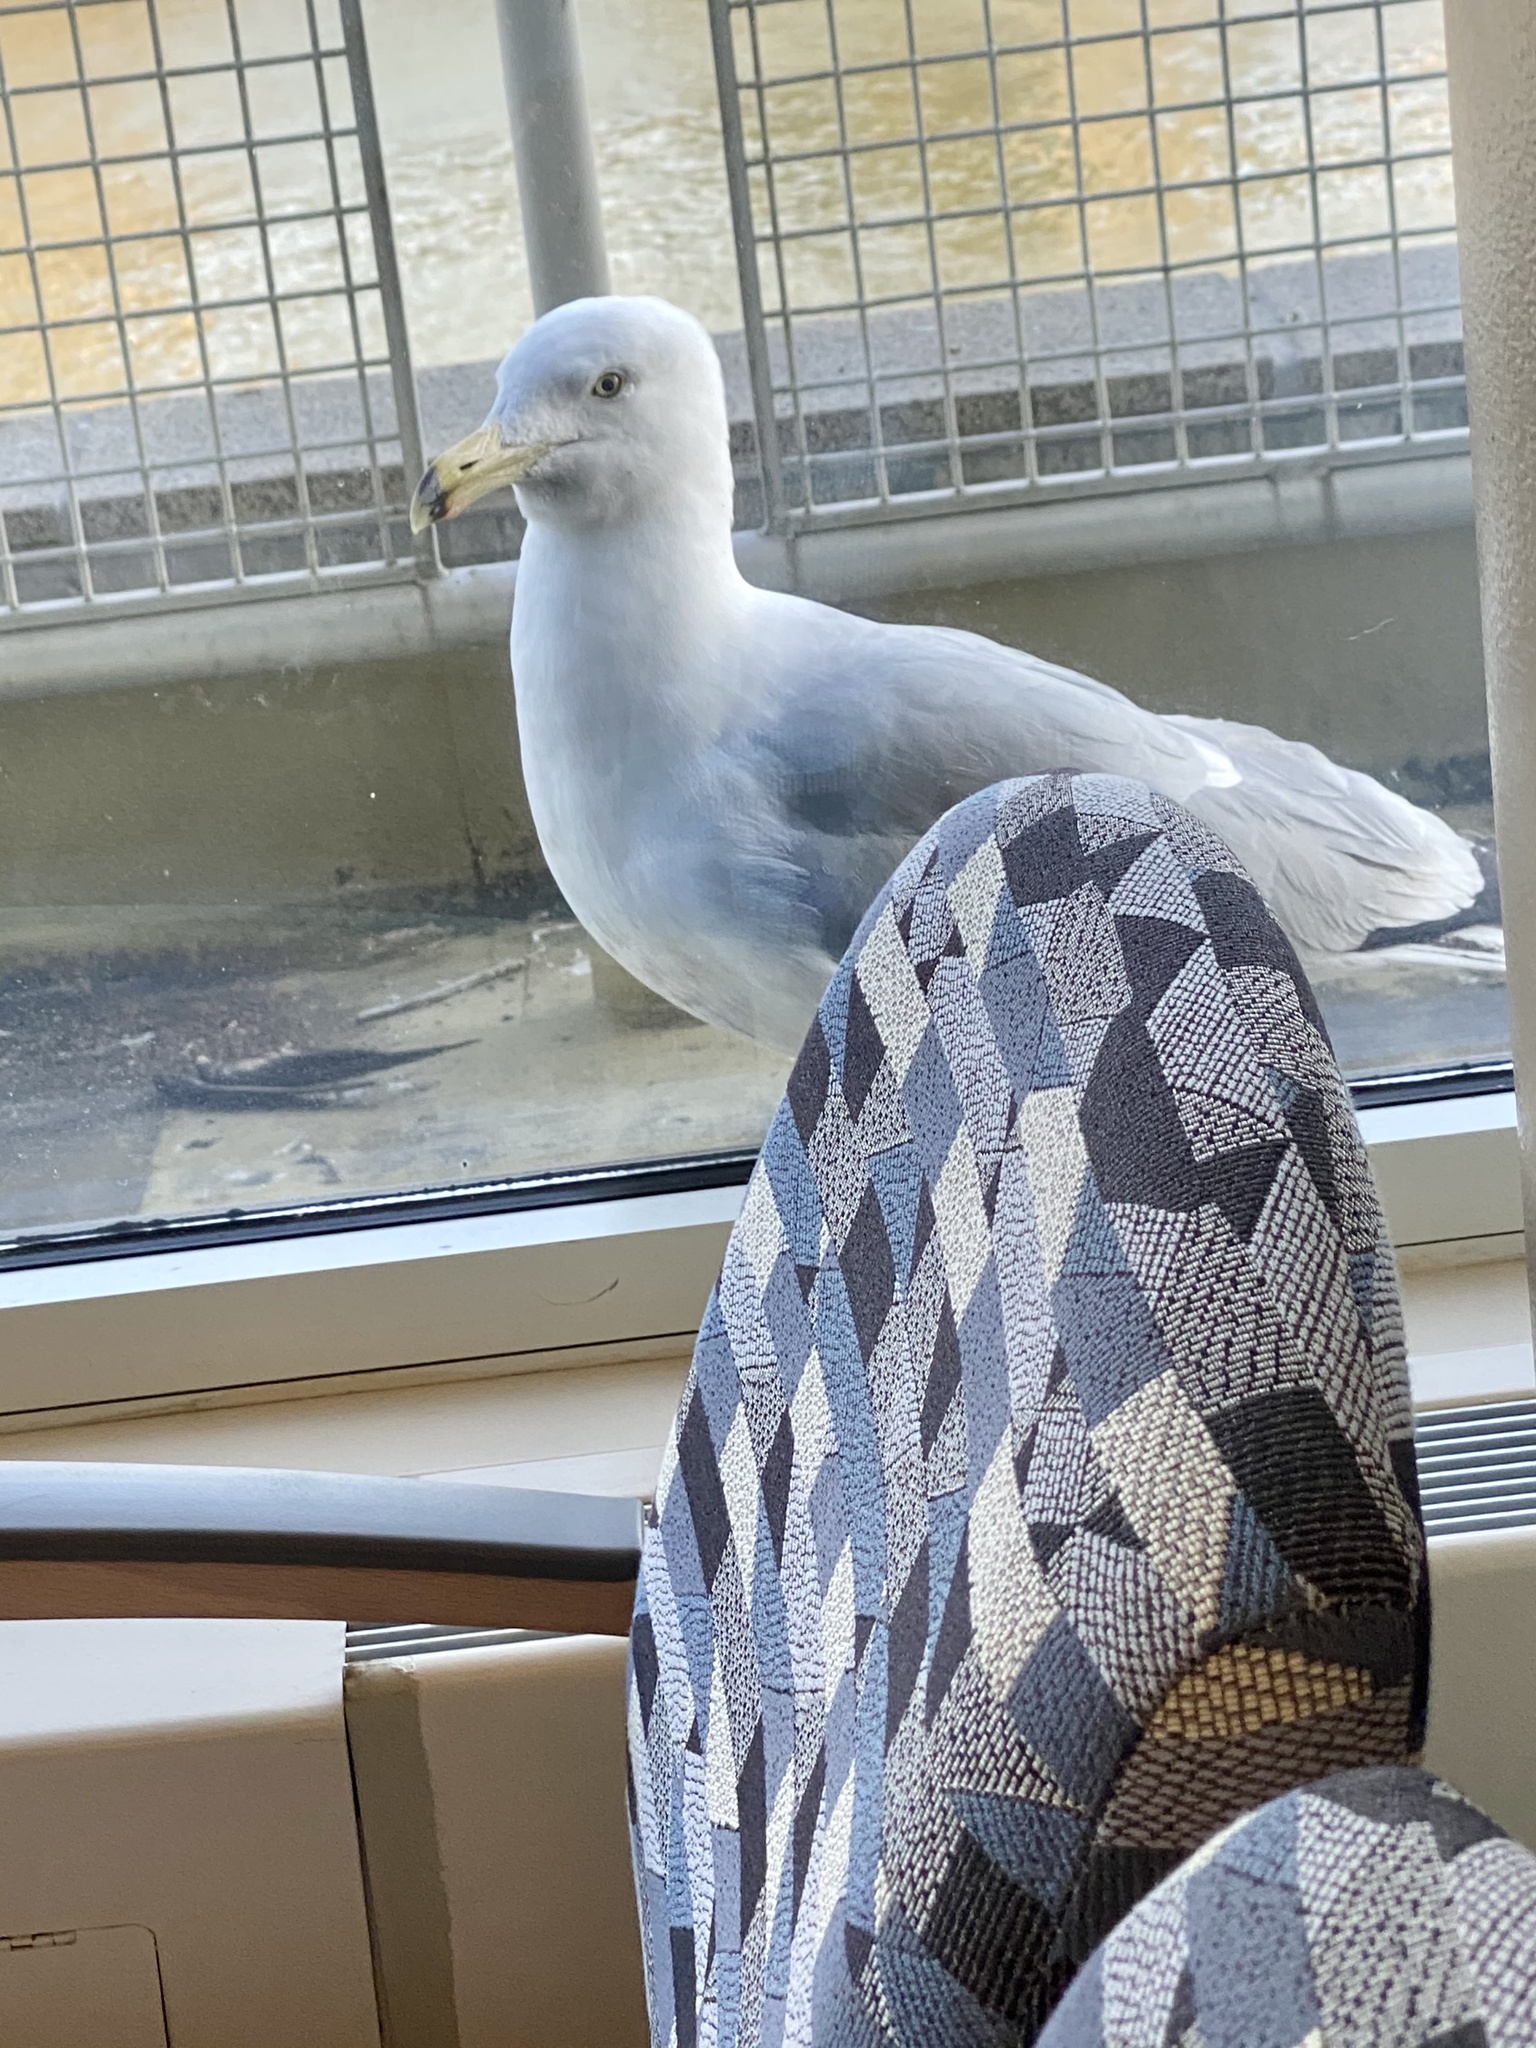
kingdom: Animalia
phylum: Chordata
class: Aves
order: Charadriiformes
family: Laridae
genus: Larus
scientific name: Larus argentatus
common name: Herring gull
